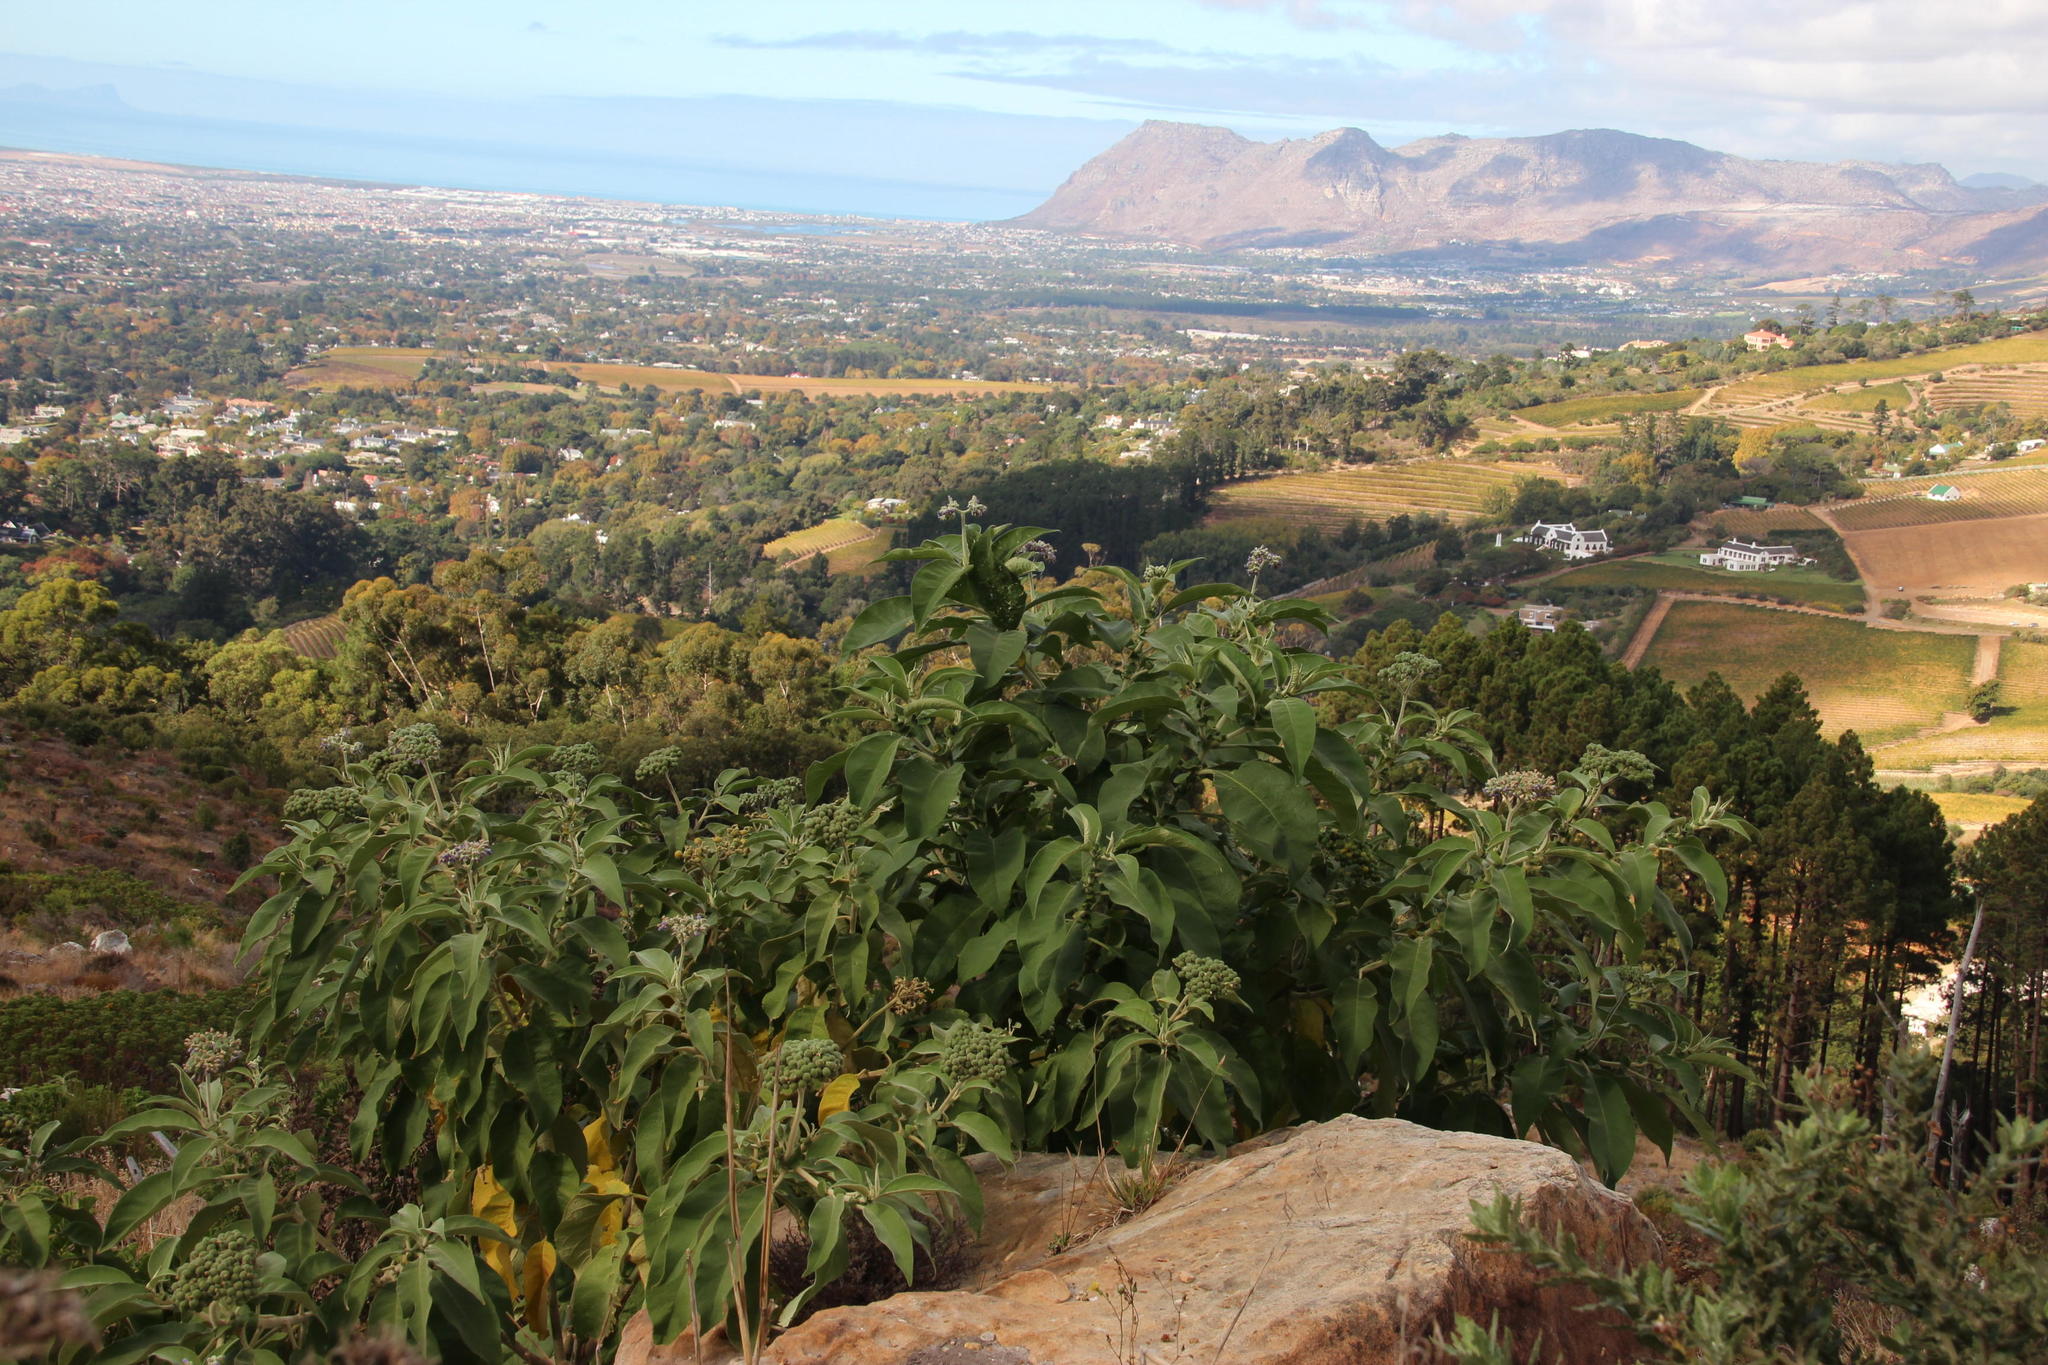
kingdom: Plantae
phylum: Tracheophyta
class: Magnoliopsida
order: Solanales
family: Solanaceae
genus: Solanum
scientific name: Solanum mauritianum
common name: Earleaf nightshade
